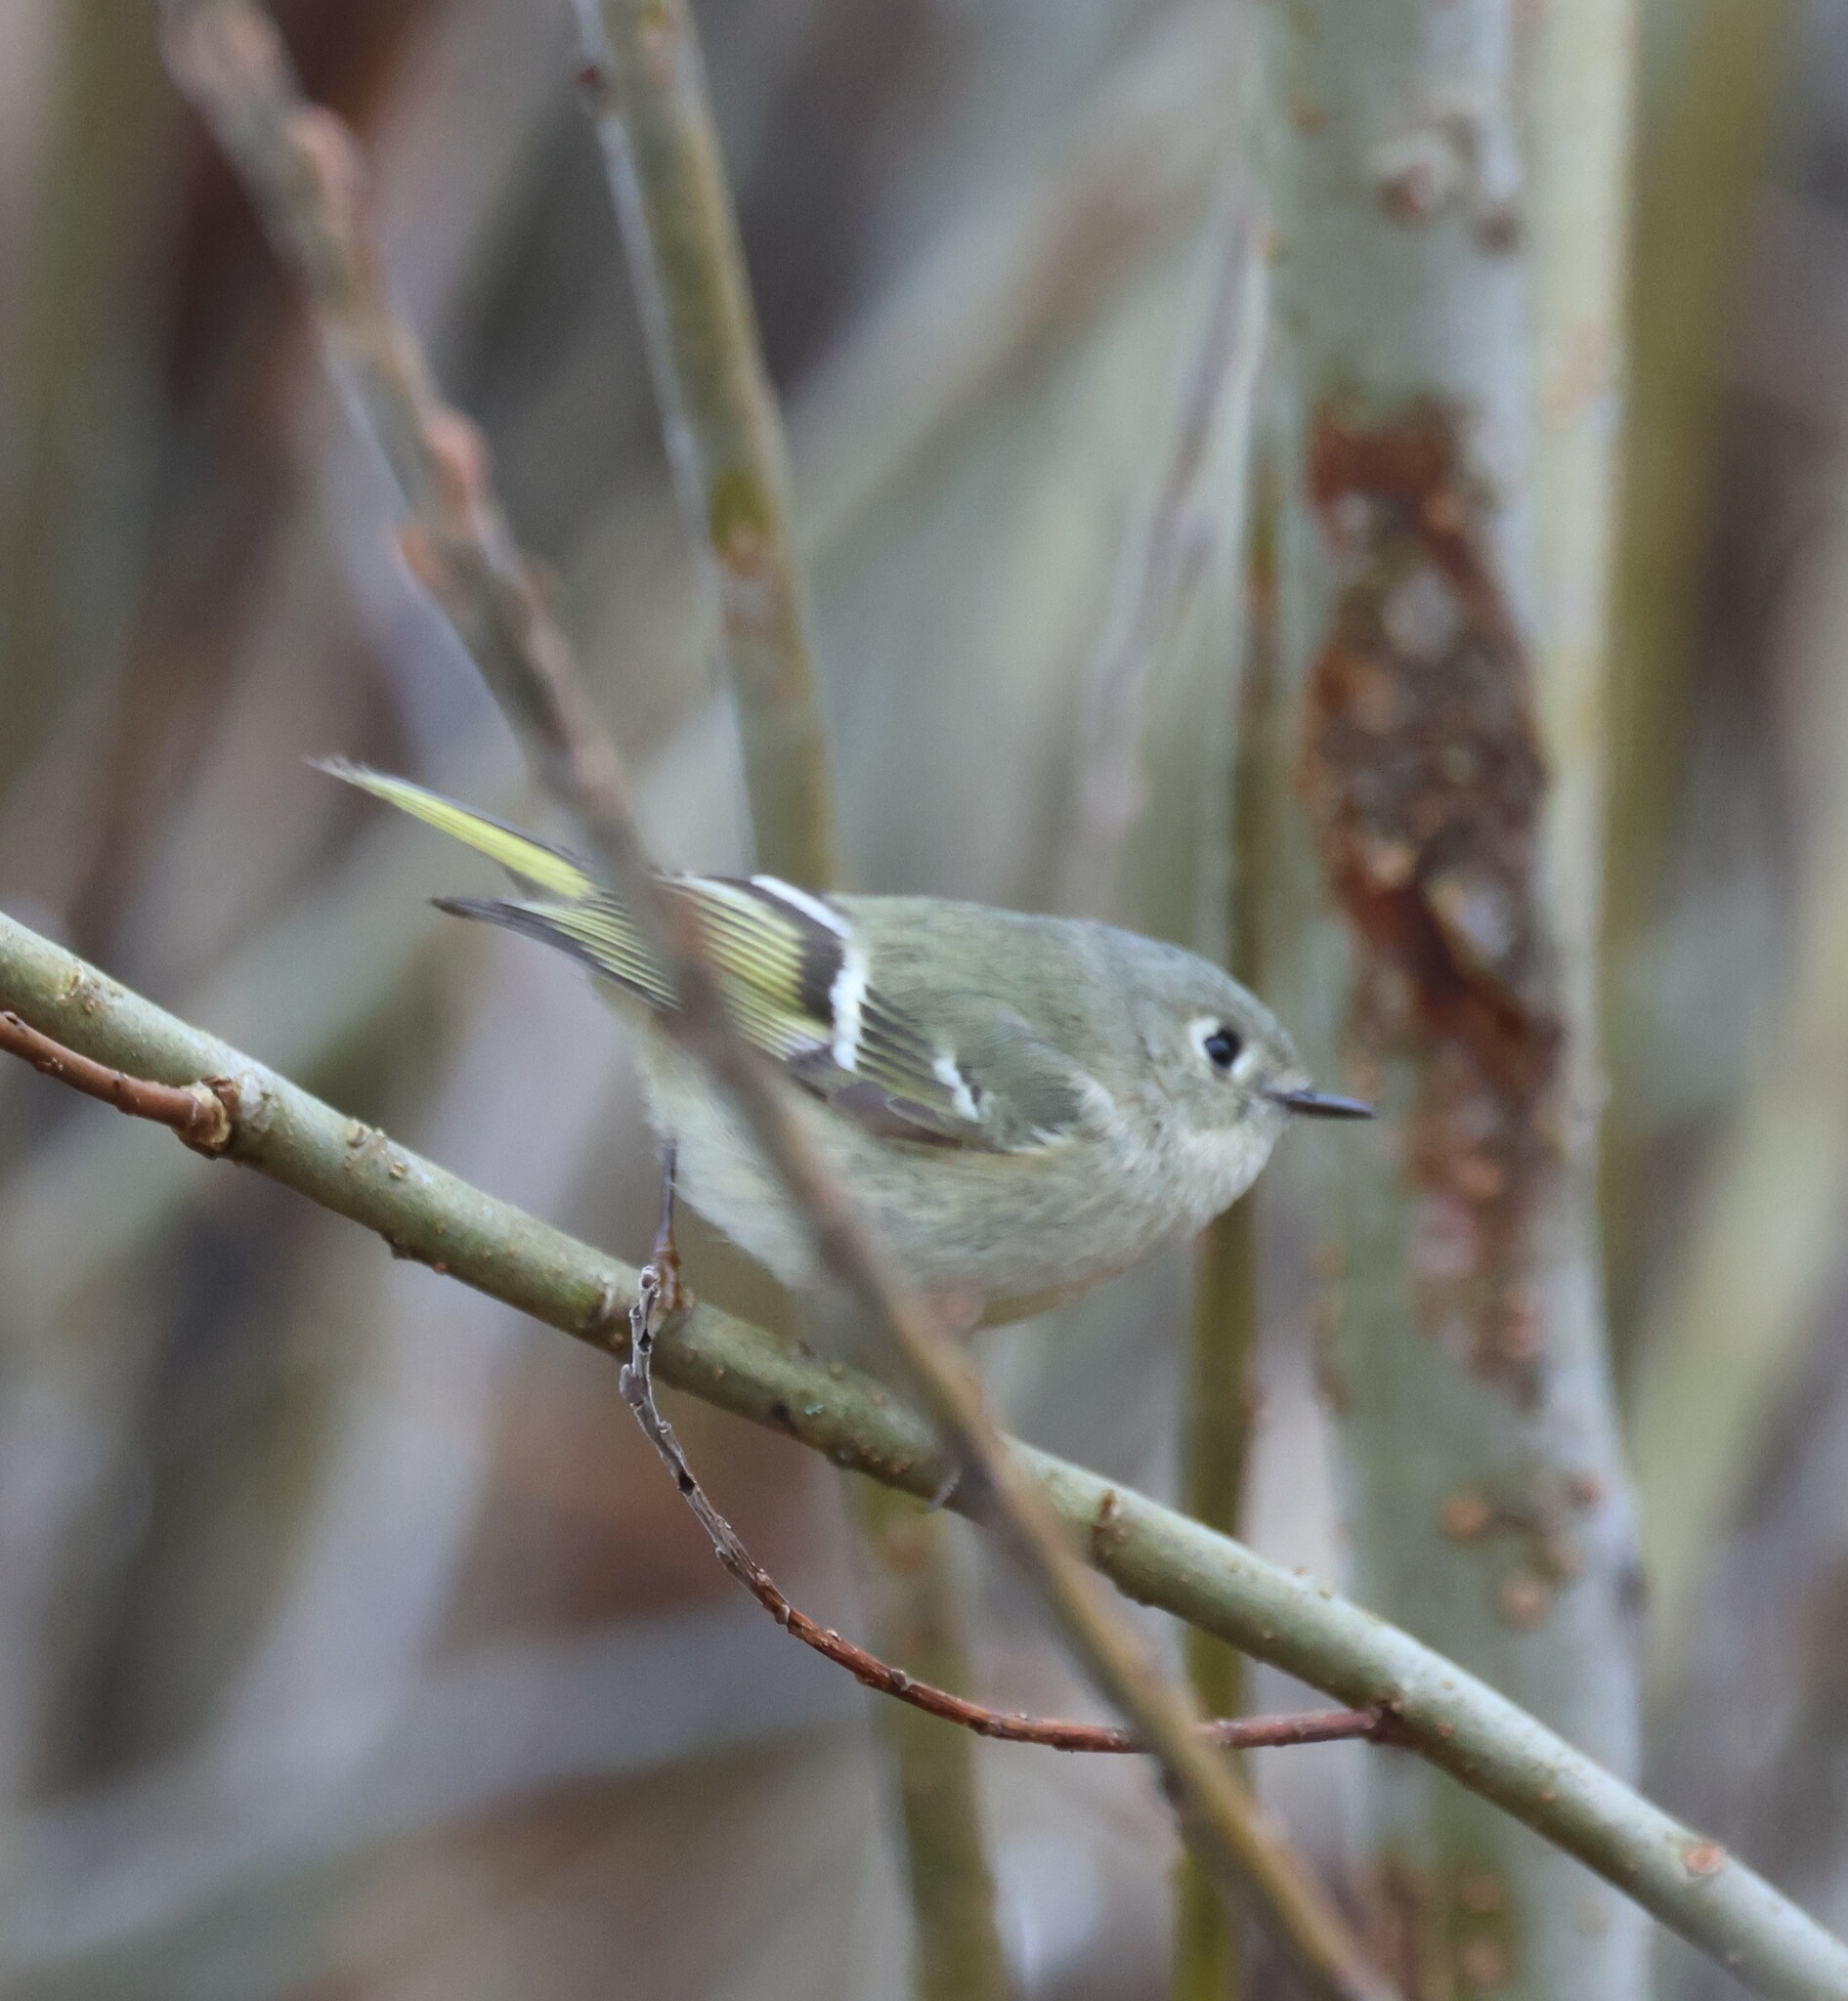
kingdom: Animalia
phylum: Chordata
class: Aves
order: Passeriformes
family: Regulidae
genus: Regulus
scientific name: Regulus calendula
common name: Ruby-crowned kinglet
